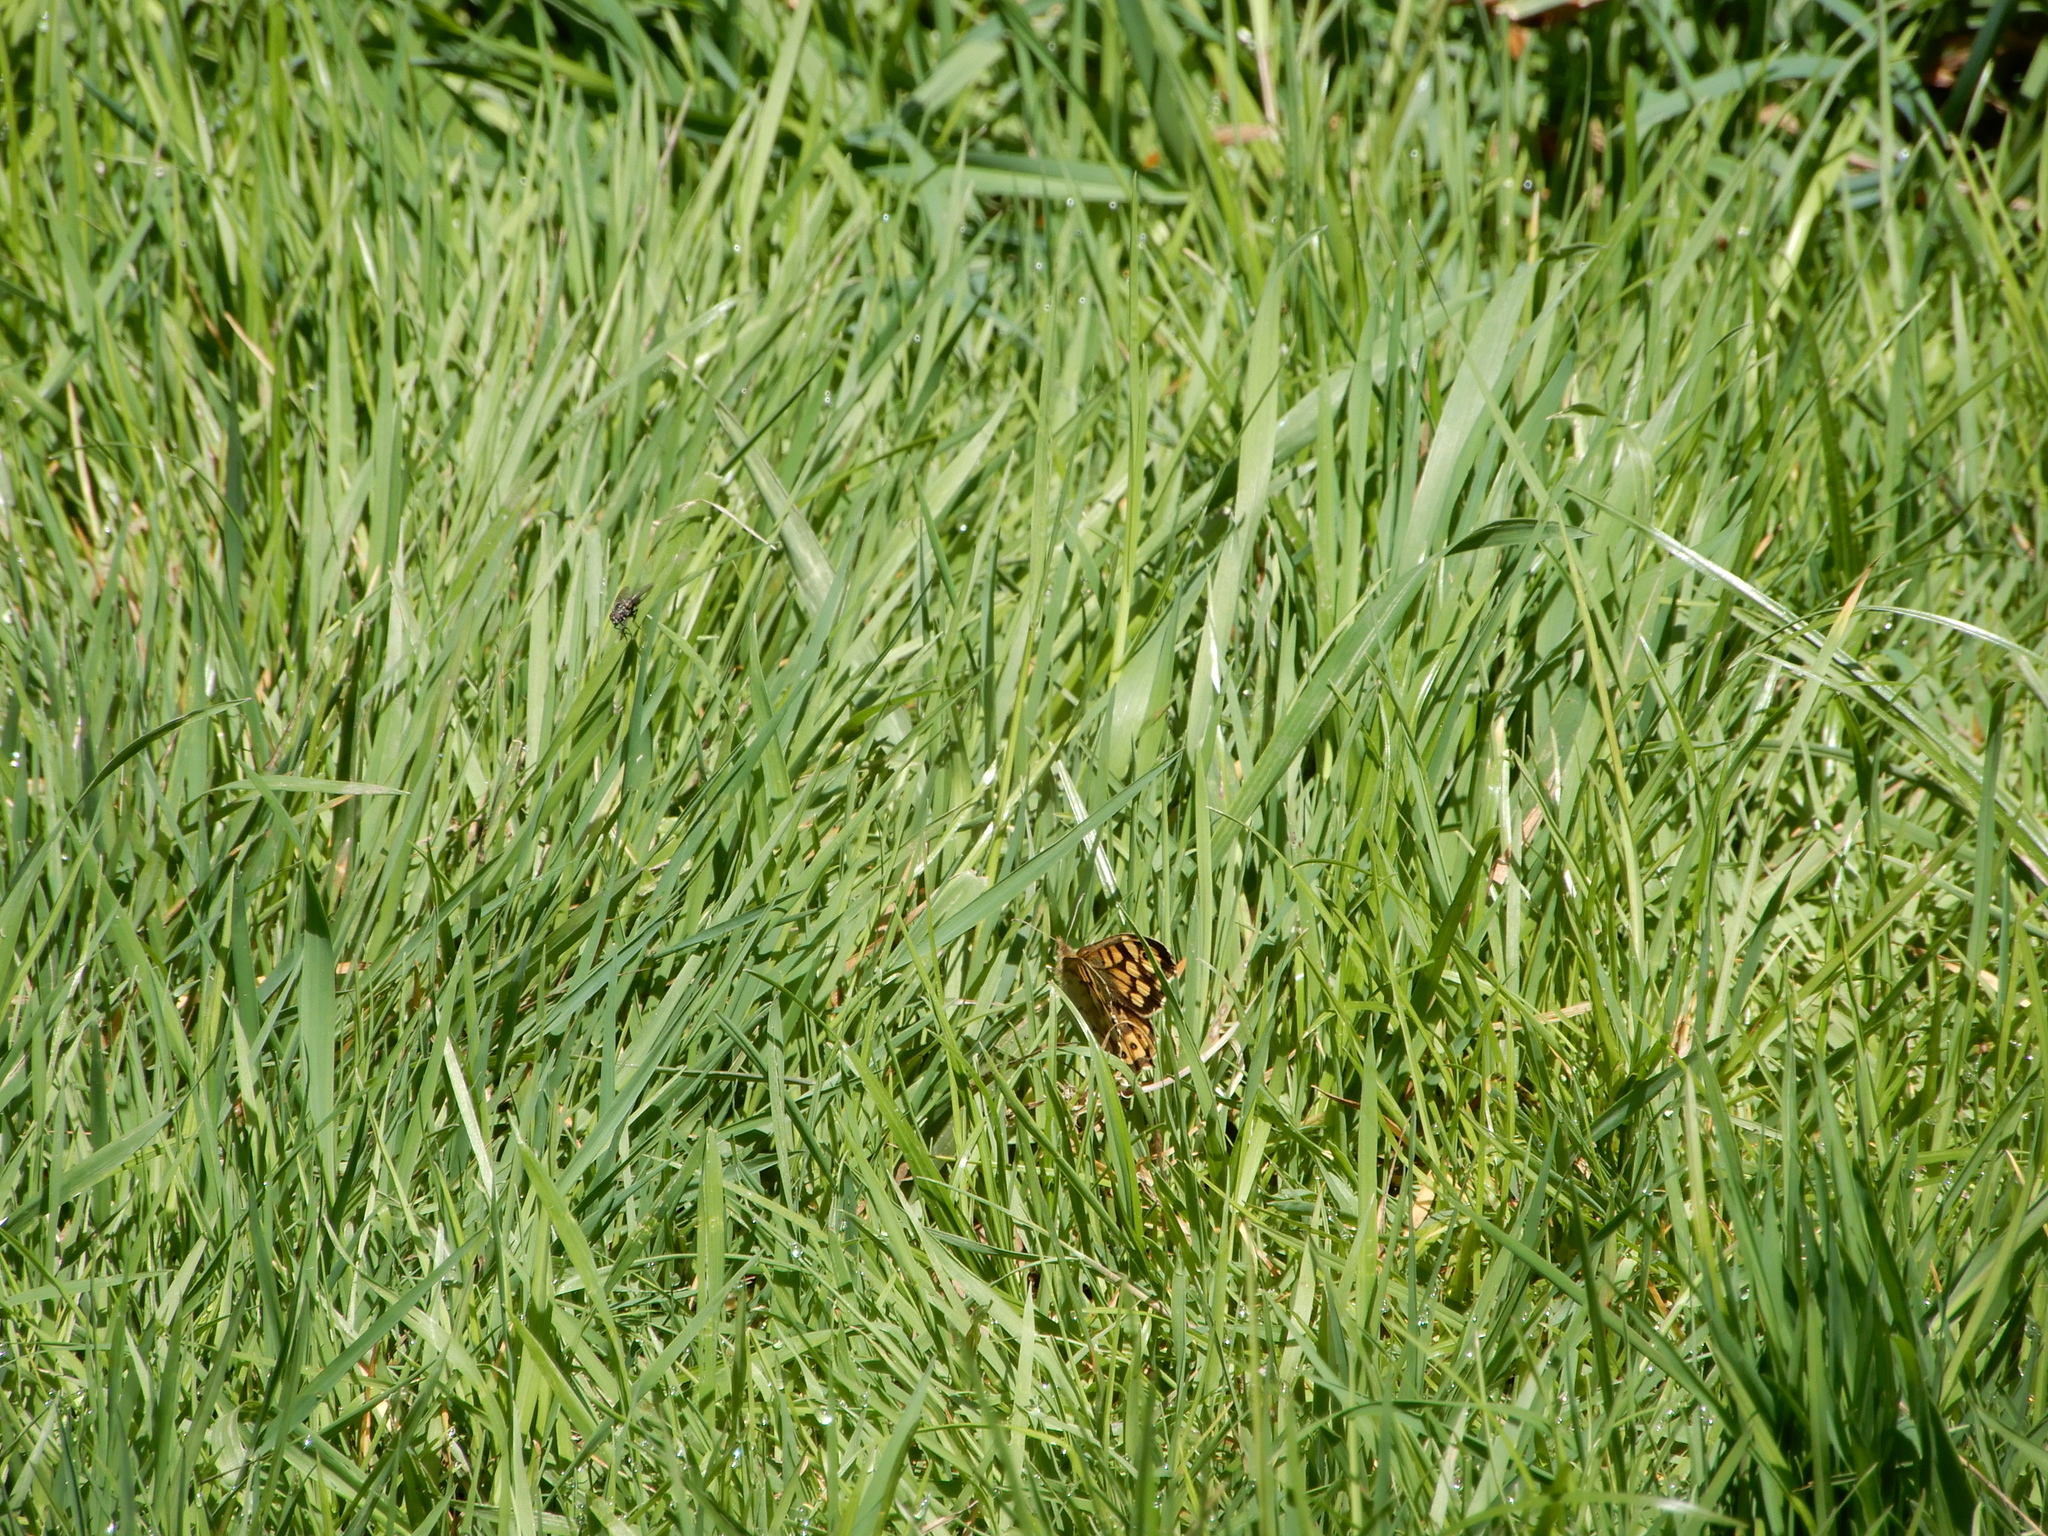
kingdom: Animalia
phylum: Arthropoda
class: Insecta
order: Lepidoptera
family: Nymphalidae
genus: Pararge
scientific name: Pararge aegeria
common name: Speckled wood
